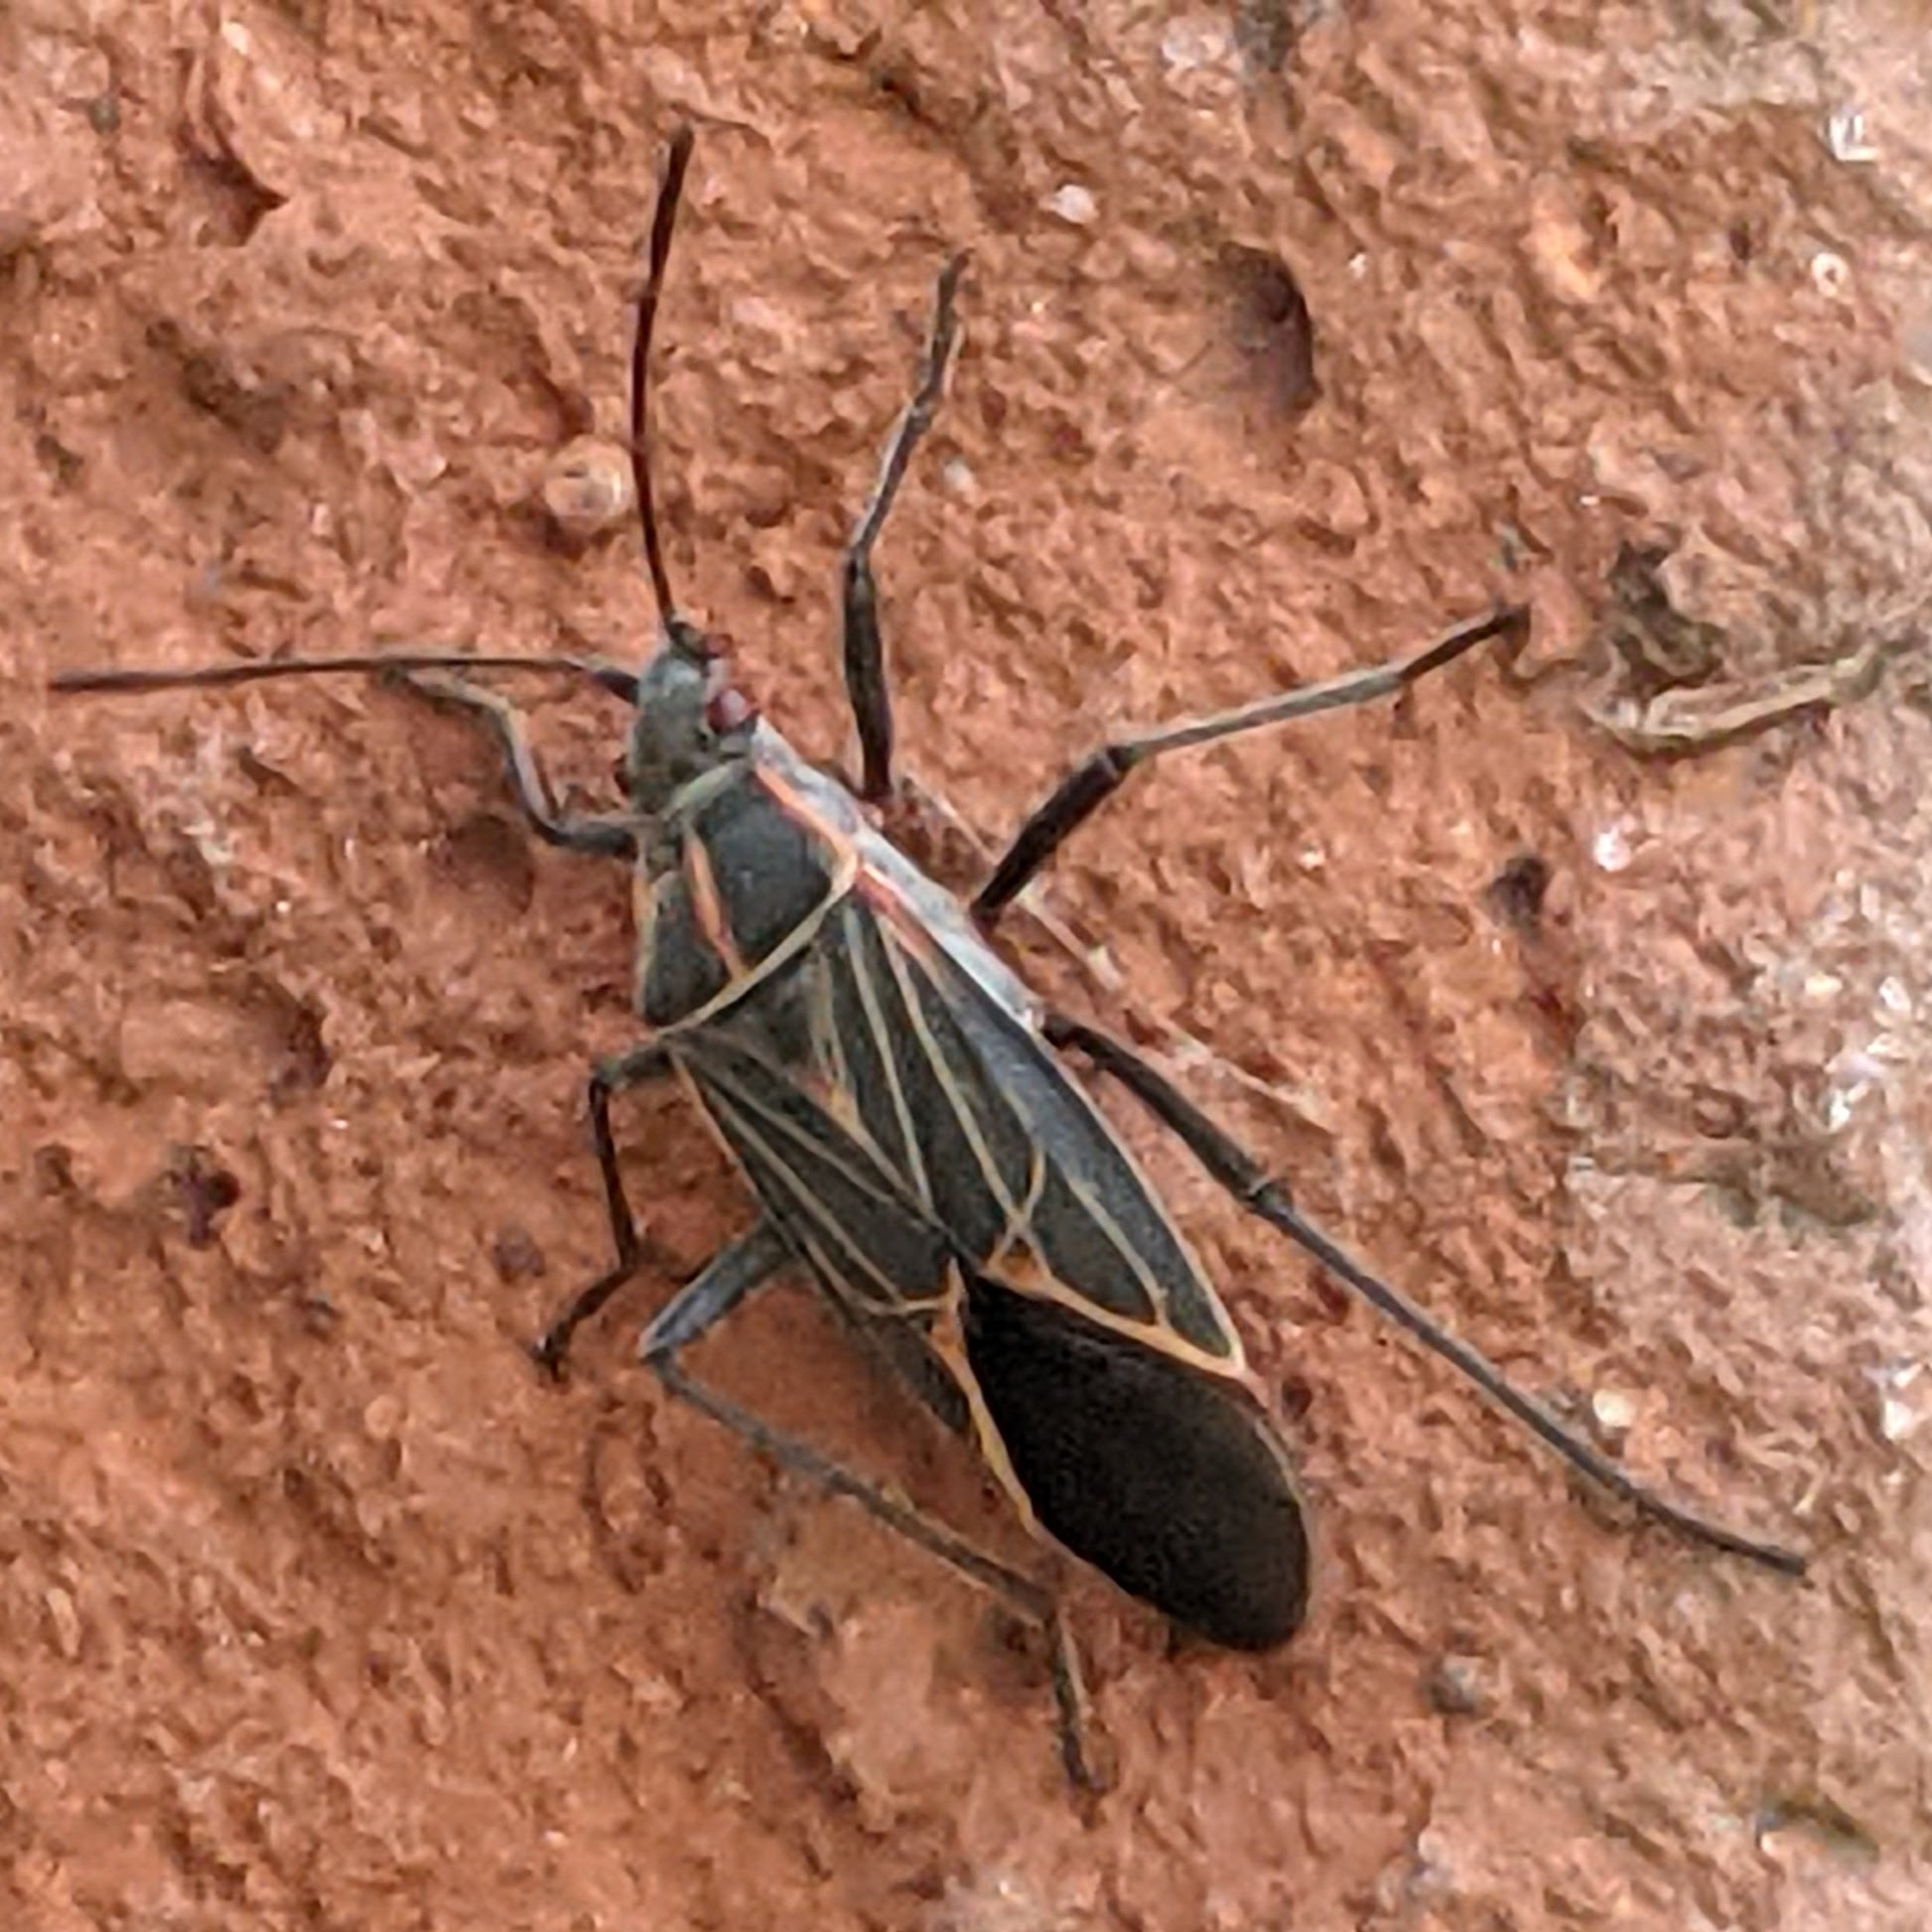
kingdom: Animalia
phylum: Arthropoda
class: Insecta
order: Hemiptera
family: Rhopalidae
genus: Boisea
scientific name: Boisea rubrolineata
